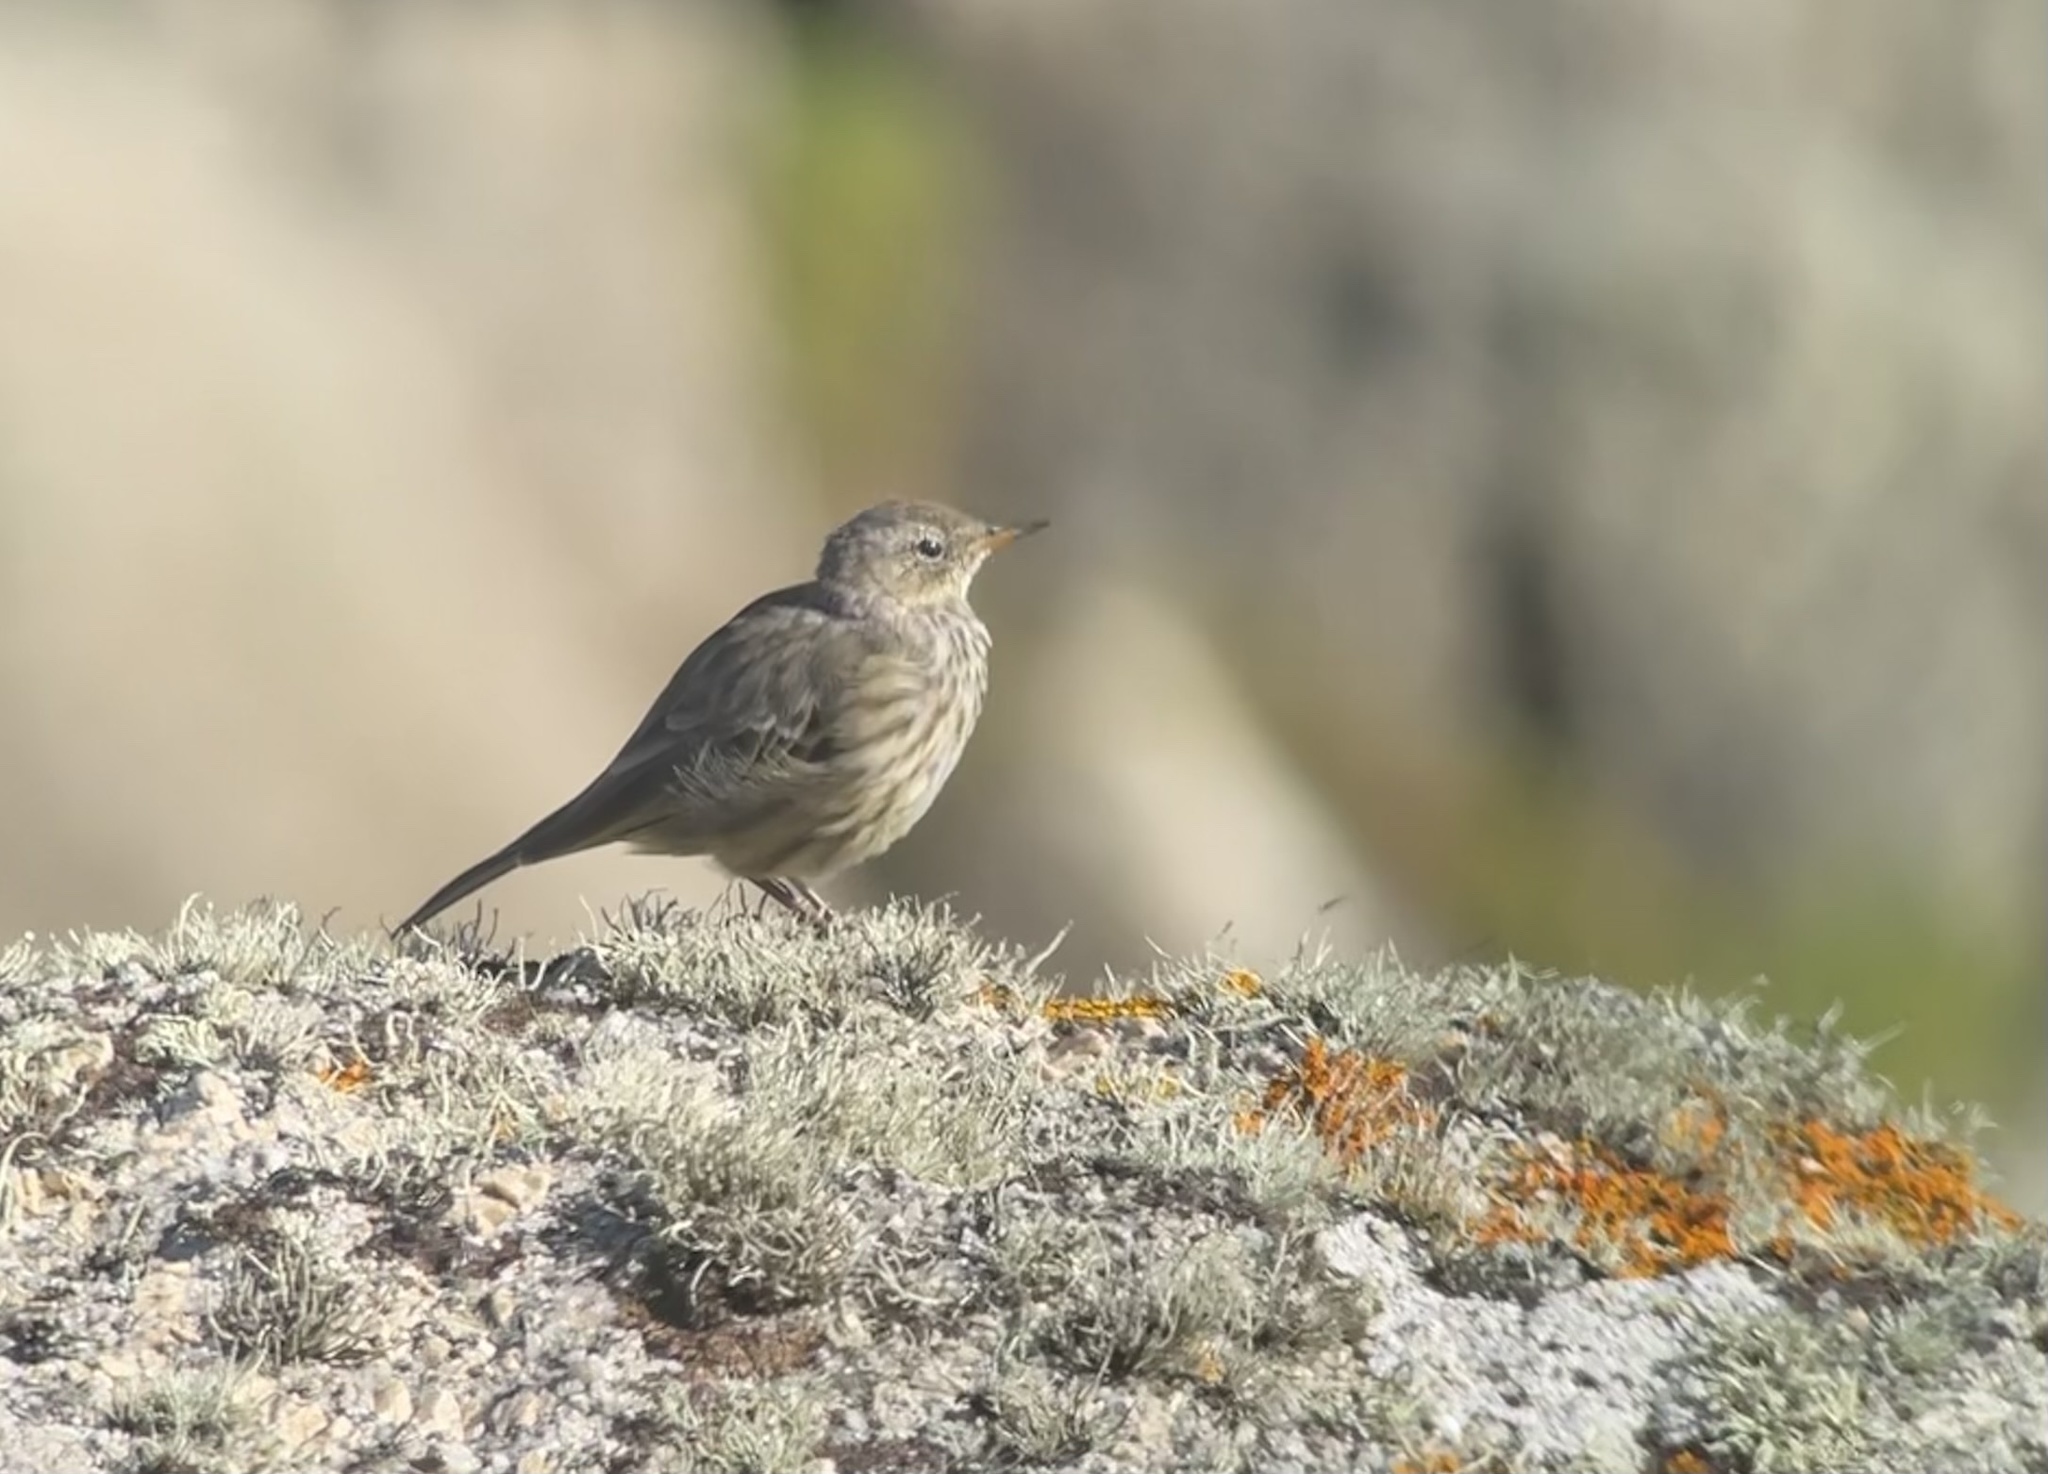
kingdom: Animalia
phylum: Chordata
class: Aves
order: Passeriformes
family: Motacillidae
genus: Anthus
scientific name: Anthus petrosus
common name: Eurasian rock pipit
